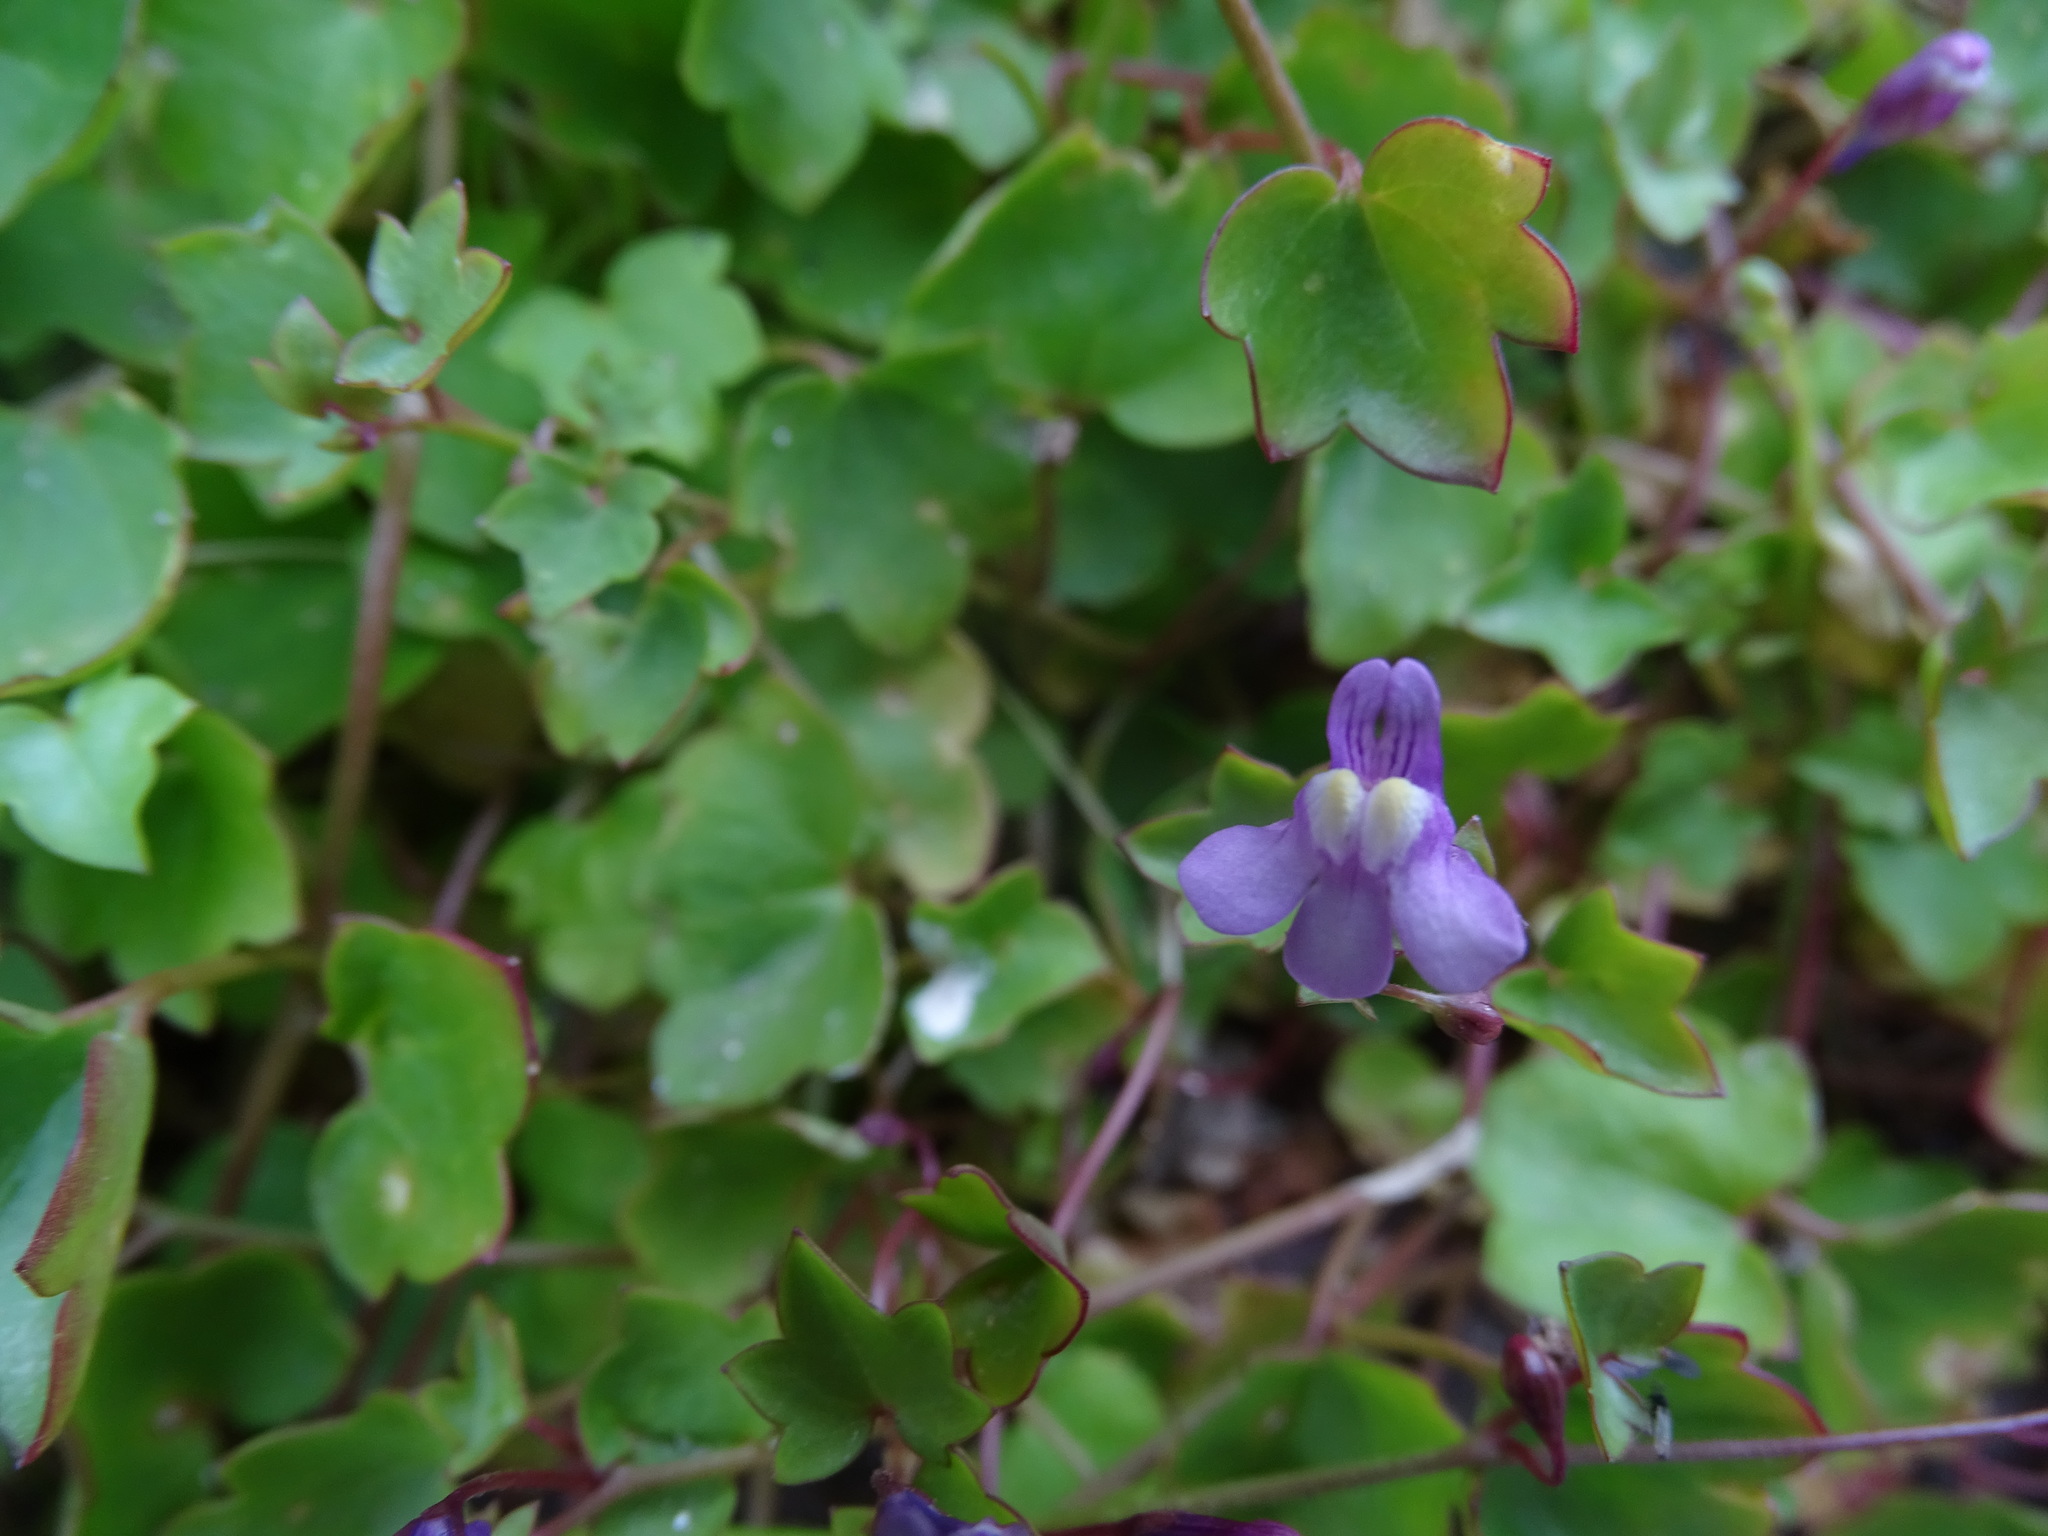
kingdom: Plantae
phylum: Tracheophyta
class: Magnoliopsida
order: Lamiales
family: Plantaginaceae
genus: Cymbalaria
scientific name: Cymbalaria muralis
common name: Ivy-leaved toadflax
